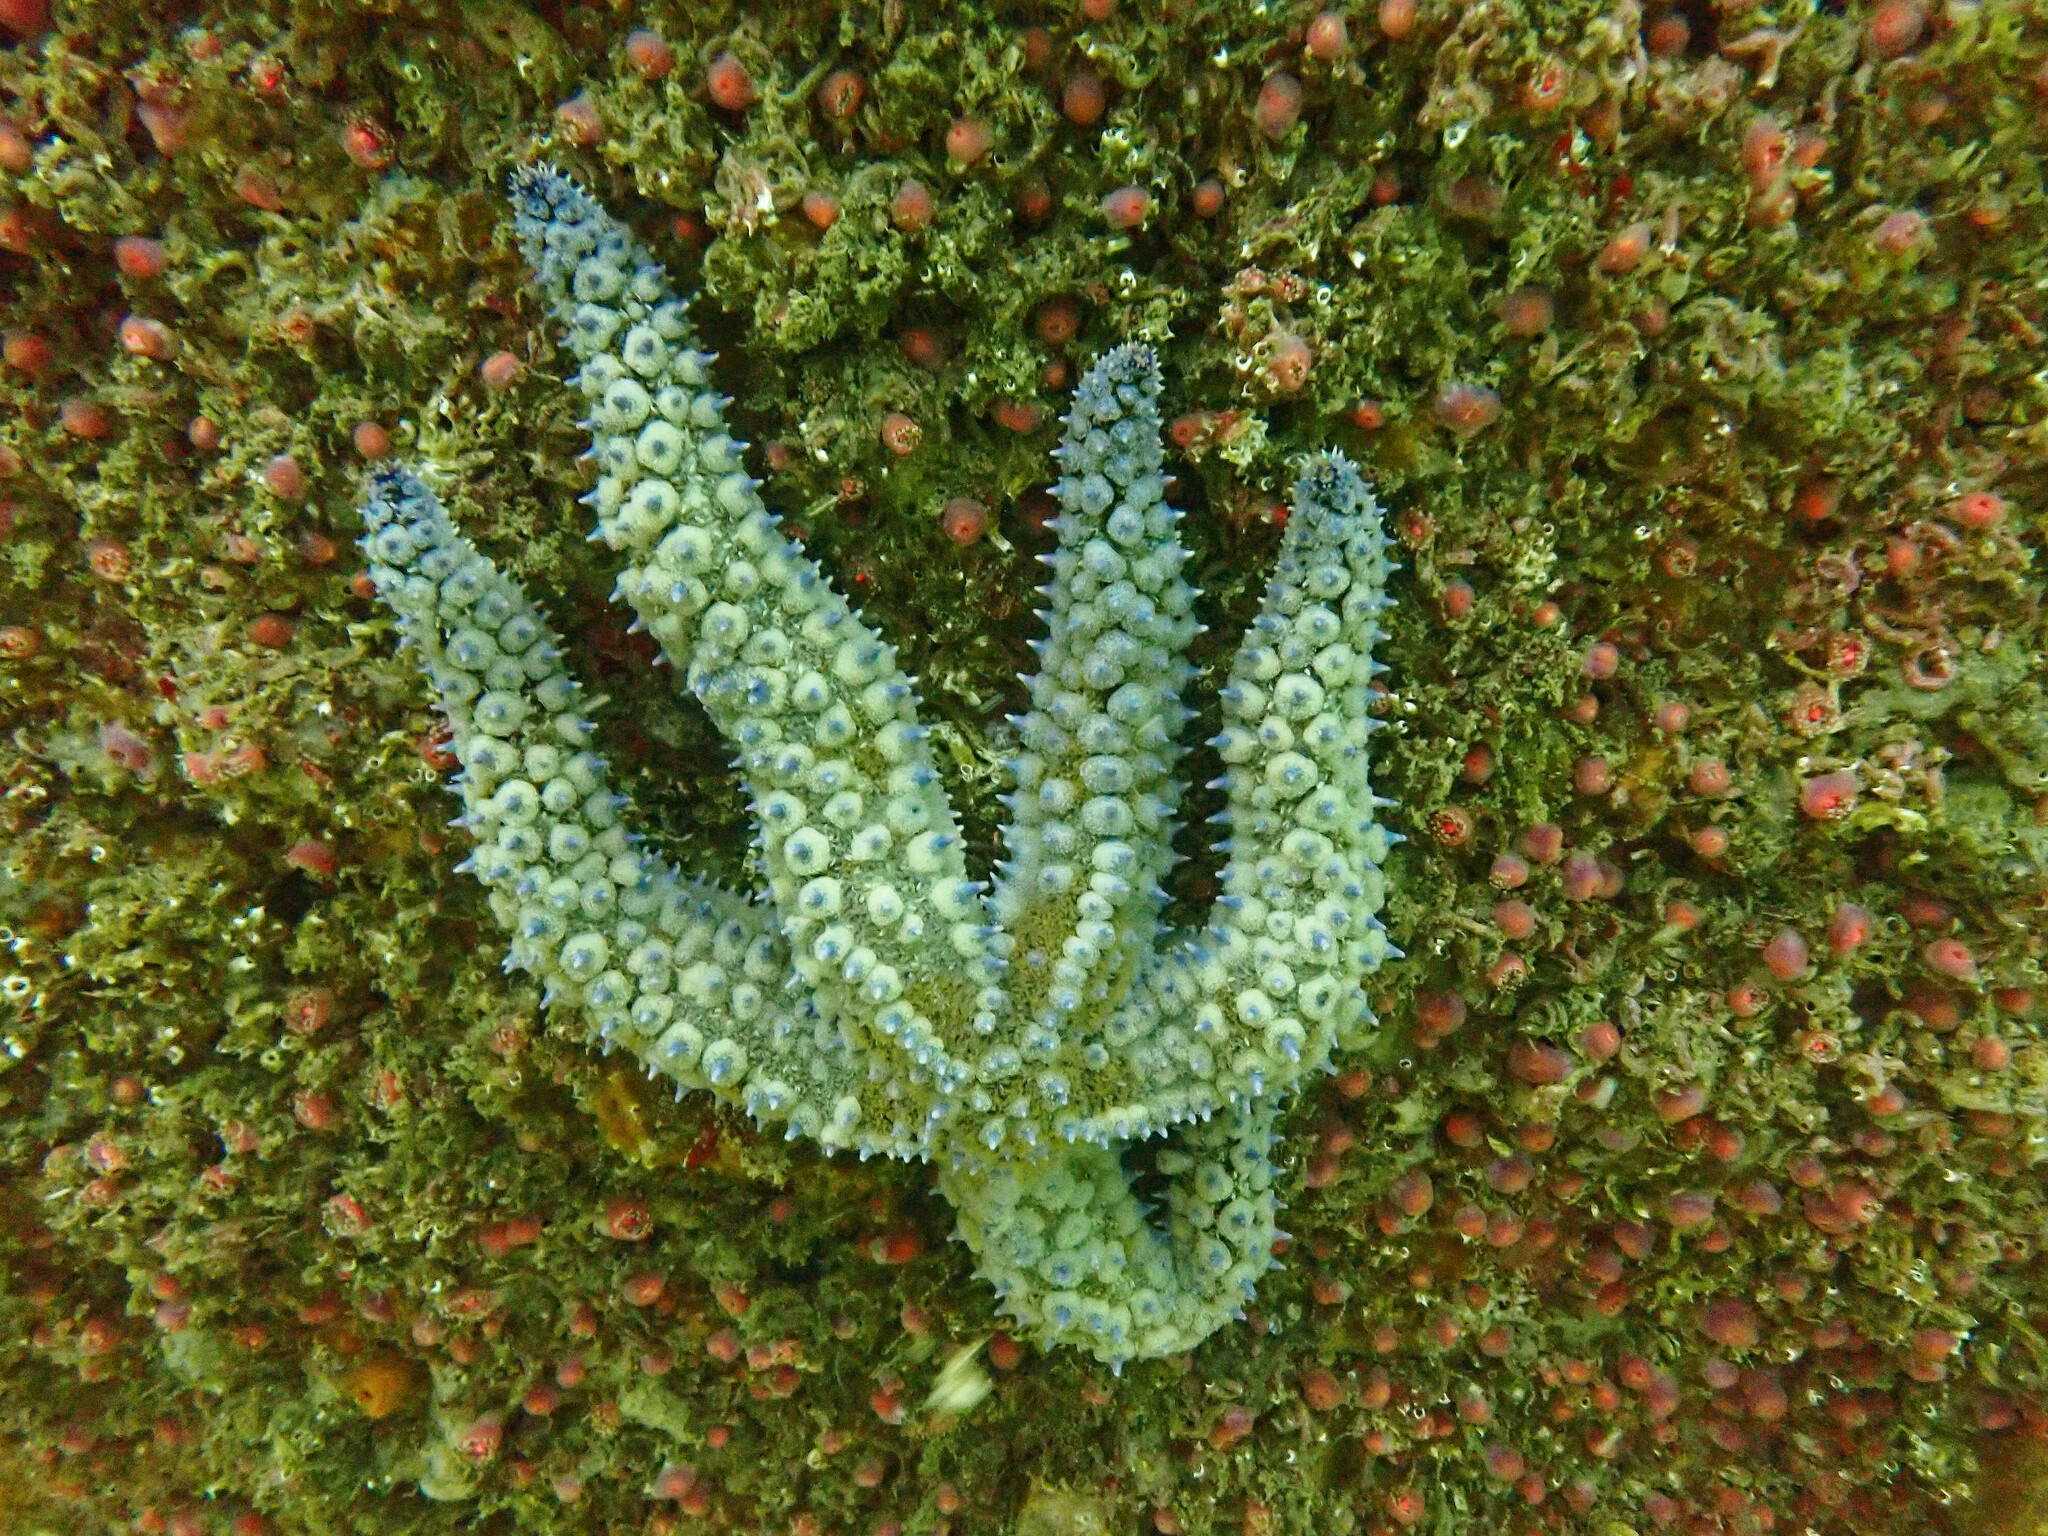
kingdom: Animalia
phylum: Echinodermata
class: Asteroidea
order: Forcipulatida
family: Asteriidae
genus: Marthasterias
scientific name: Marthasterias glacialis
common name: Spiny starfish
